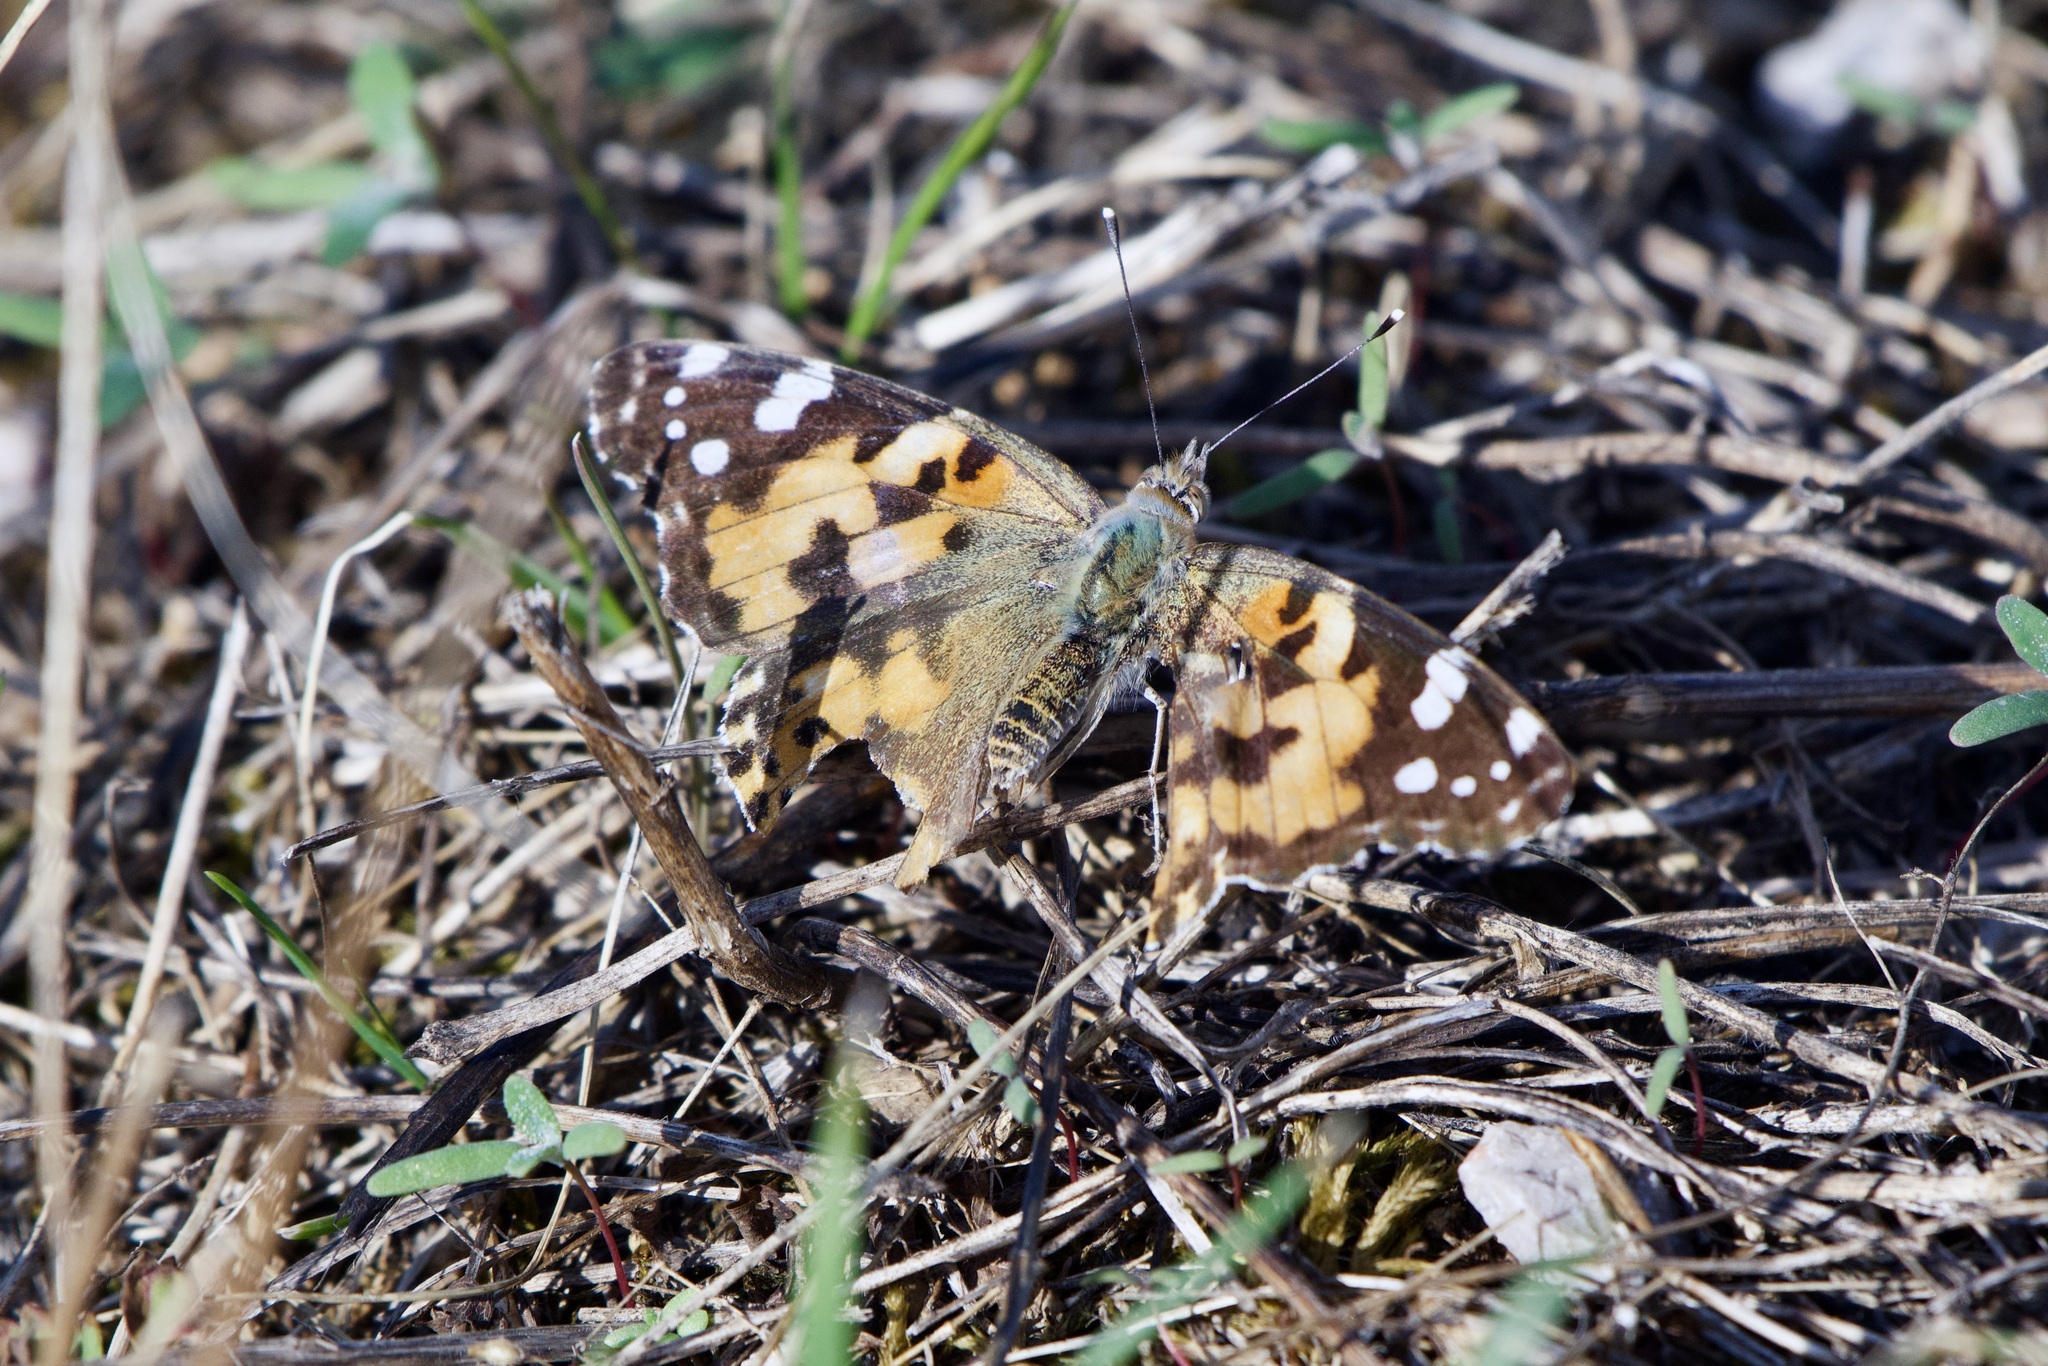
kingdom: Animalia
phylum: Arthropoda
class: Insecta
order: Lepidoptera
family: Nymphalidae
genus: Vanessa
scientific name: Vanessa cardui
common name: Painted lady
